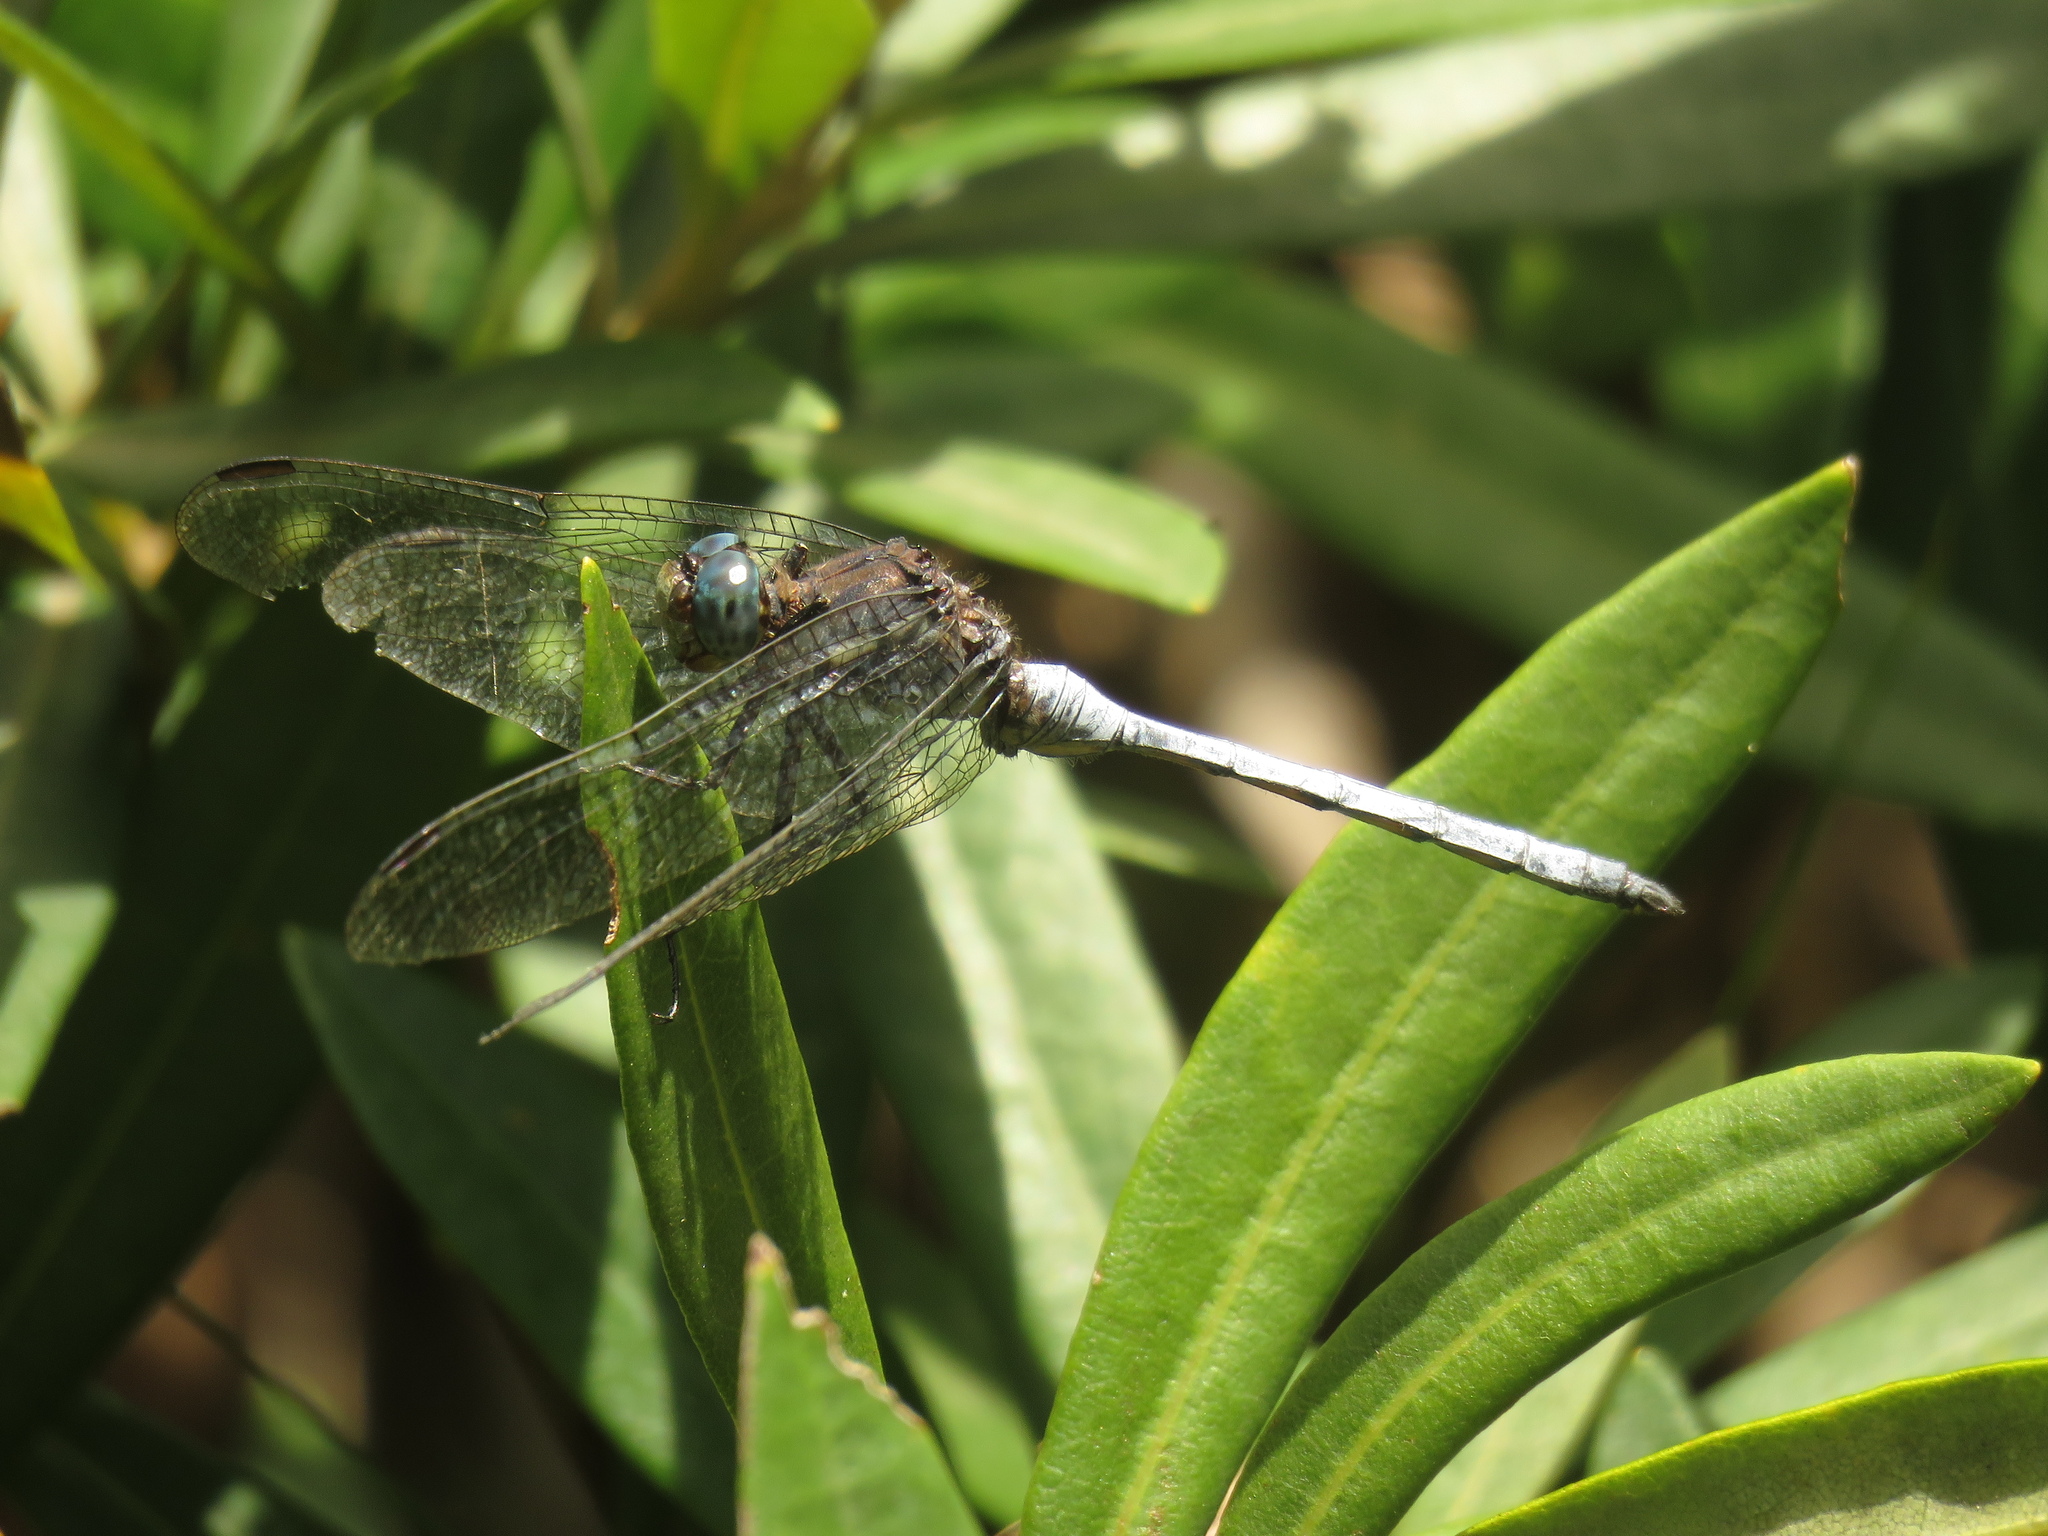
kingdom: Animalia
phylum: Arthropoda
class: Insecta
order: Odonata
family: Libellulidae
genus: Orthetrum
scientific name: Orthetrum julia
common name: Julia skimmer
